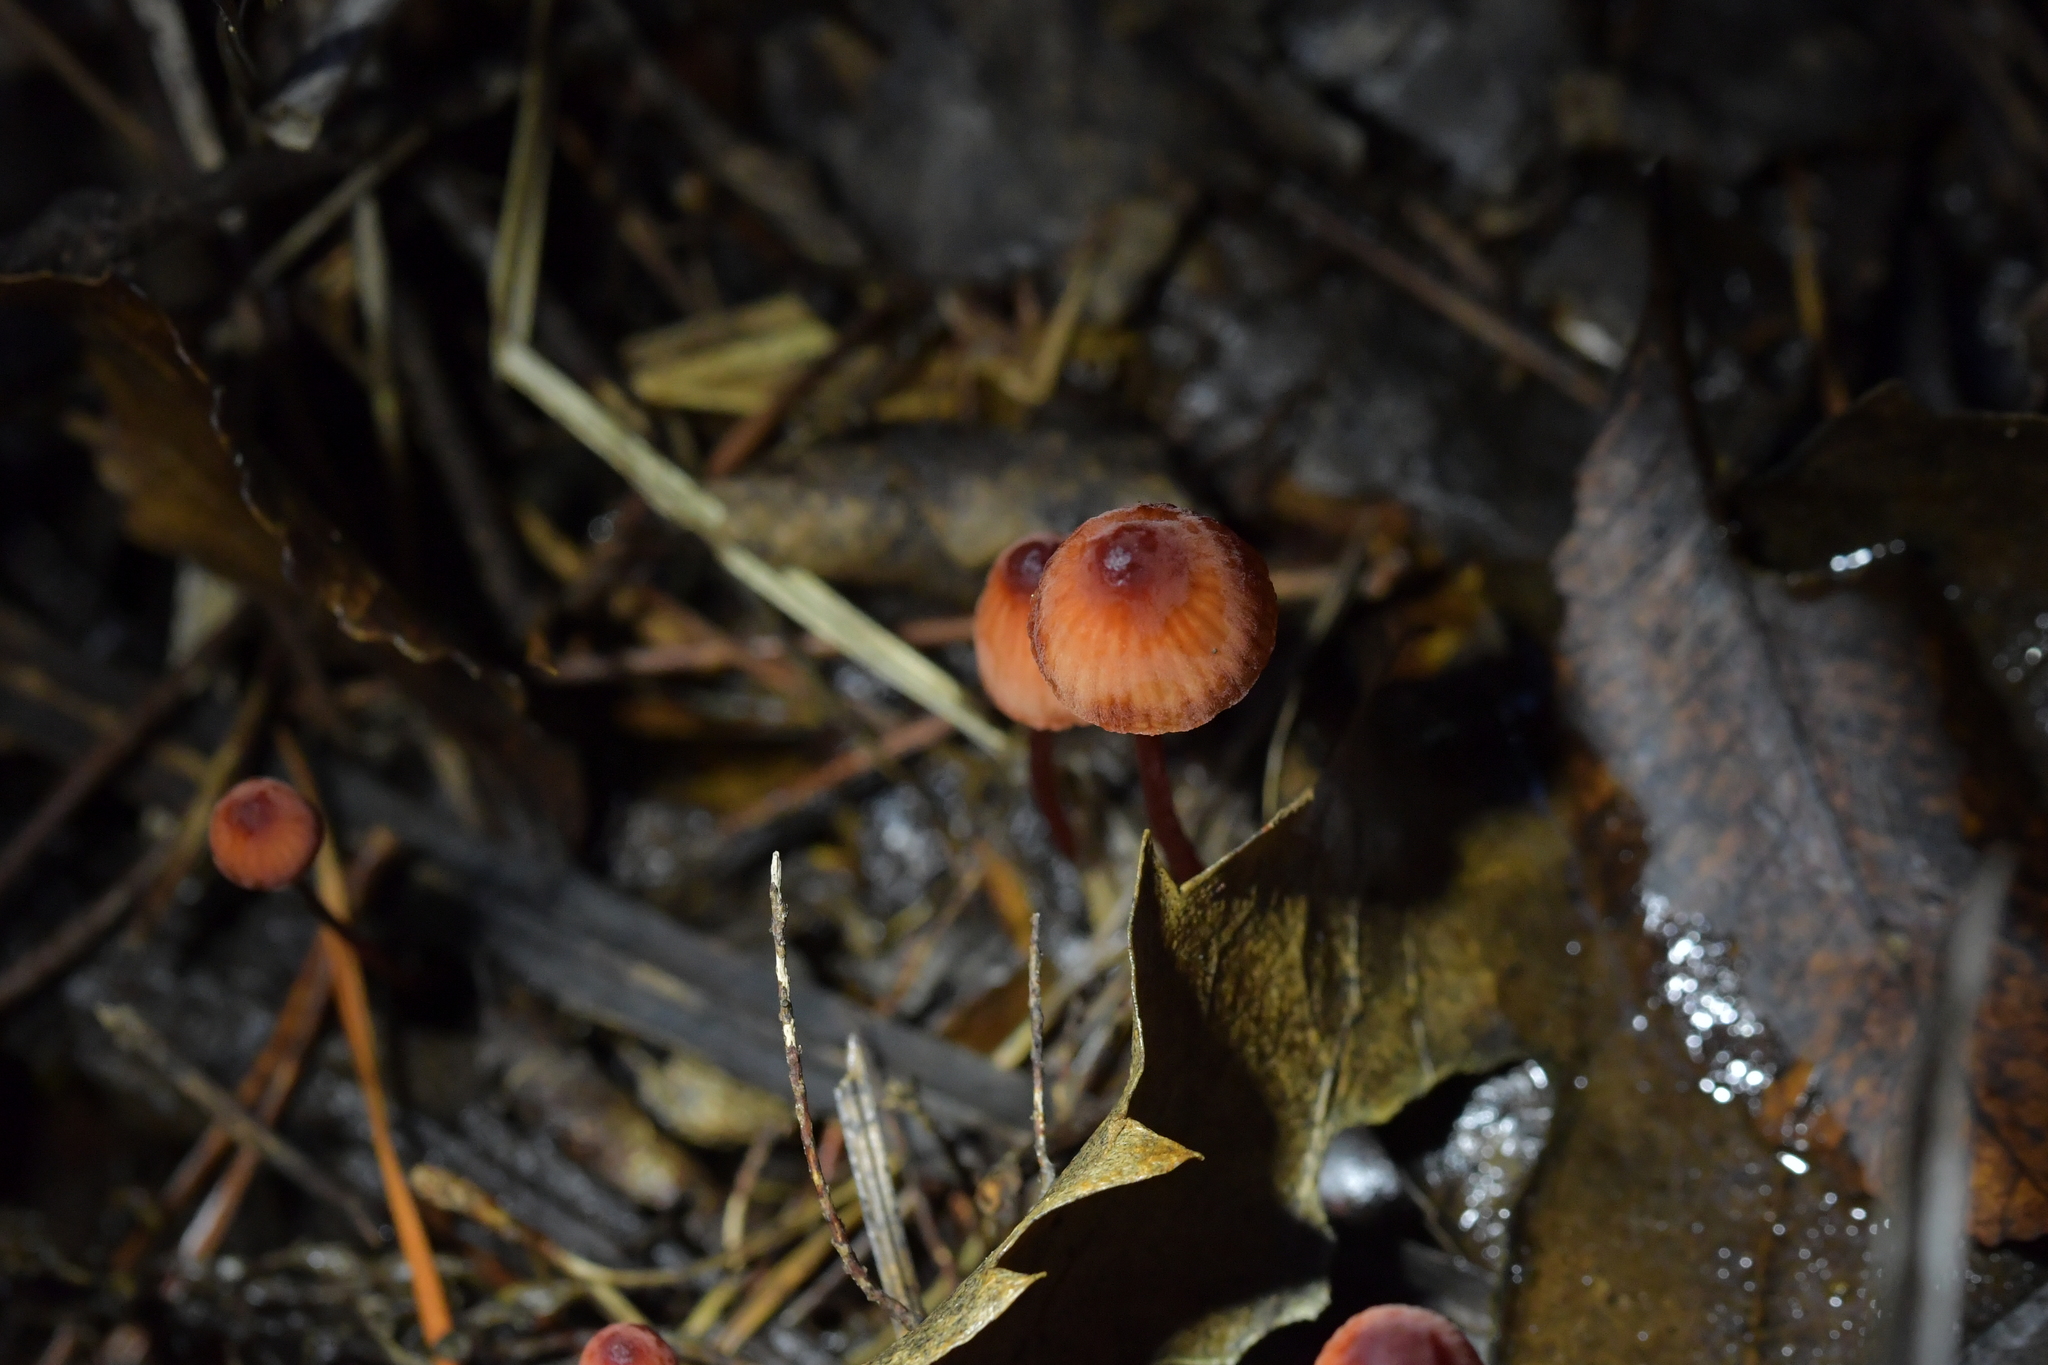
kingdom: Fungi
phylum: Basidiomycota
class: Agaricomycetes
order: Agaricales
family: Mycenaceae
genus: Mycena
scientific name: Mycena mariae
